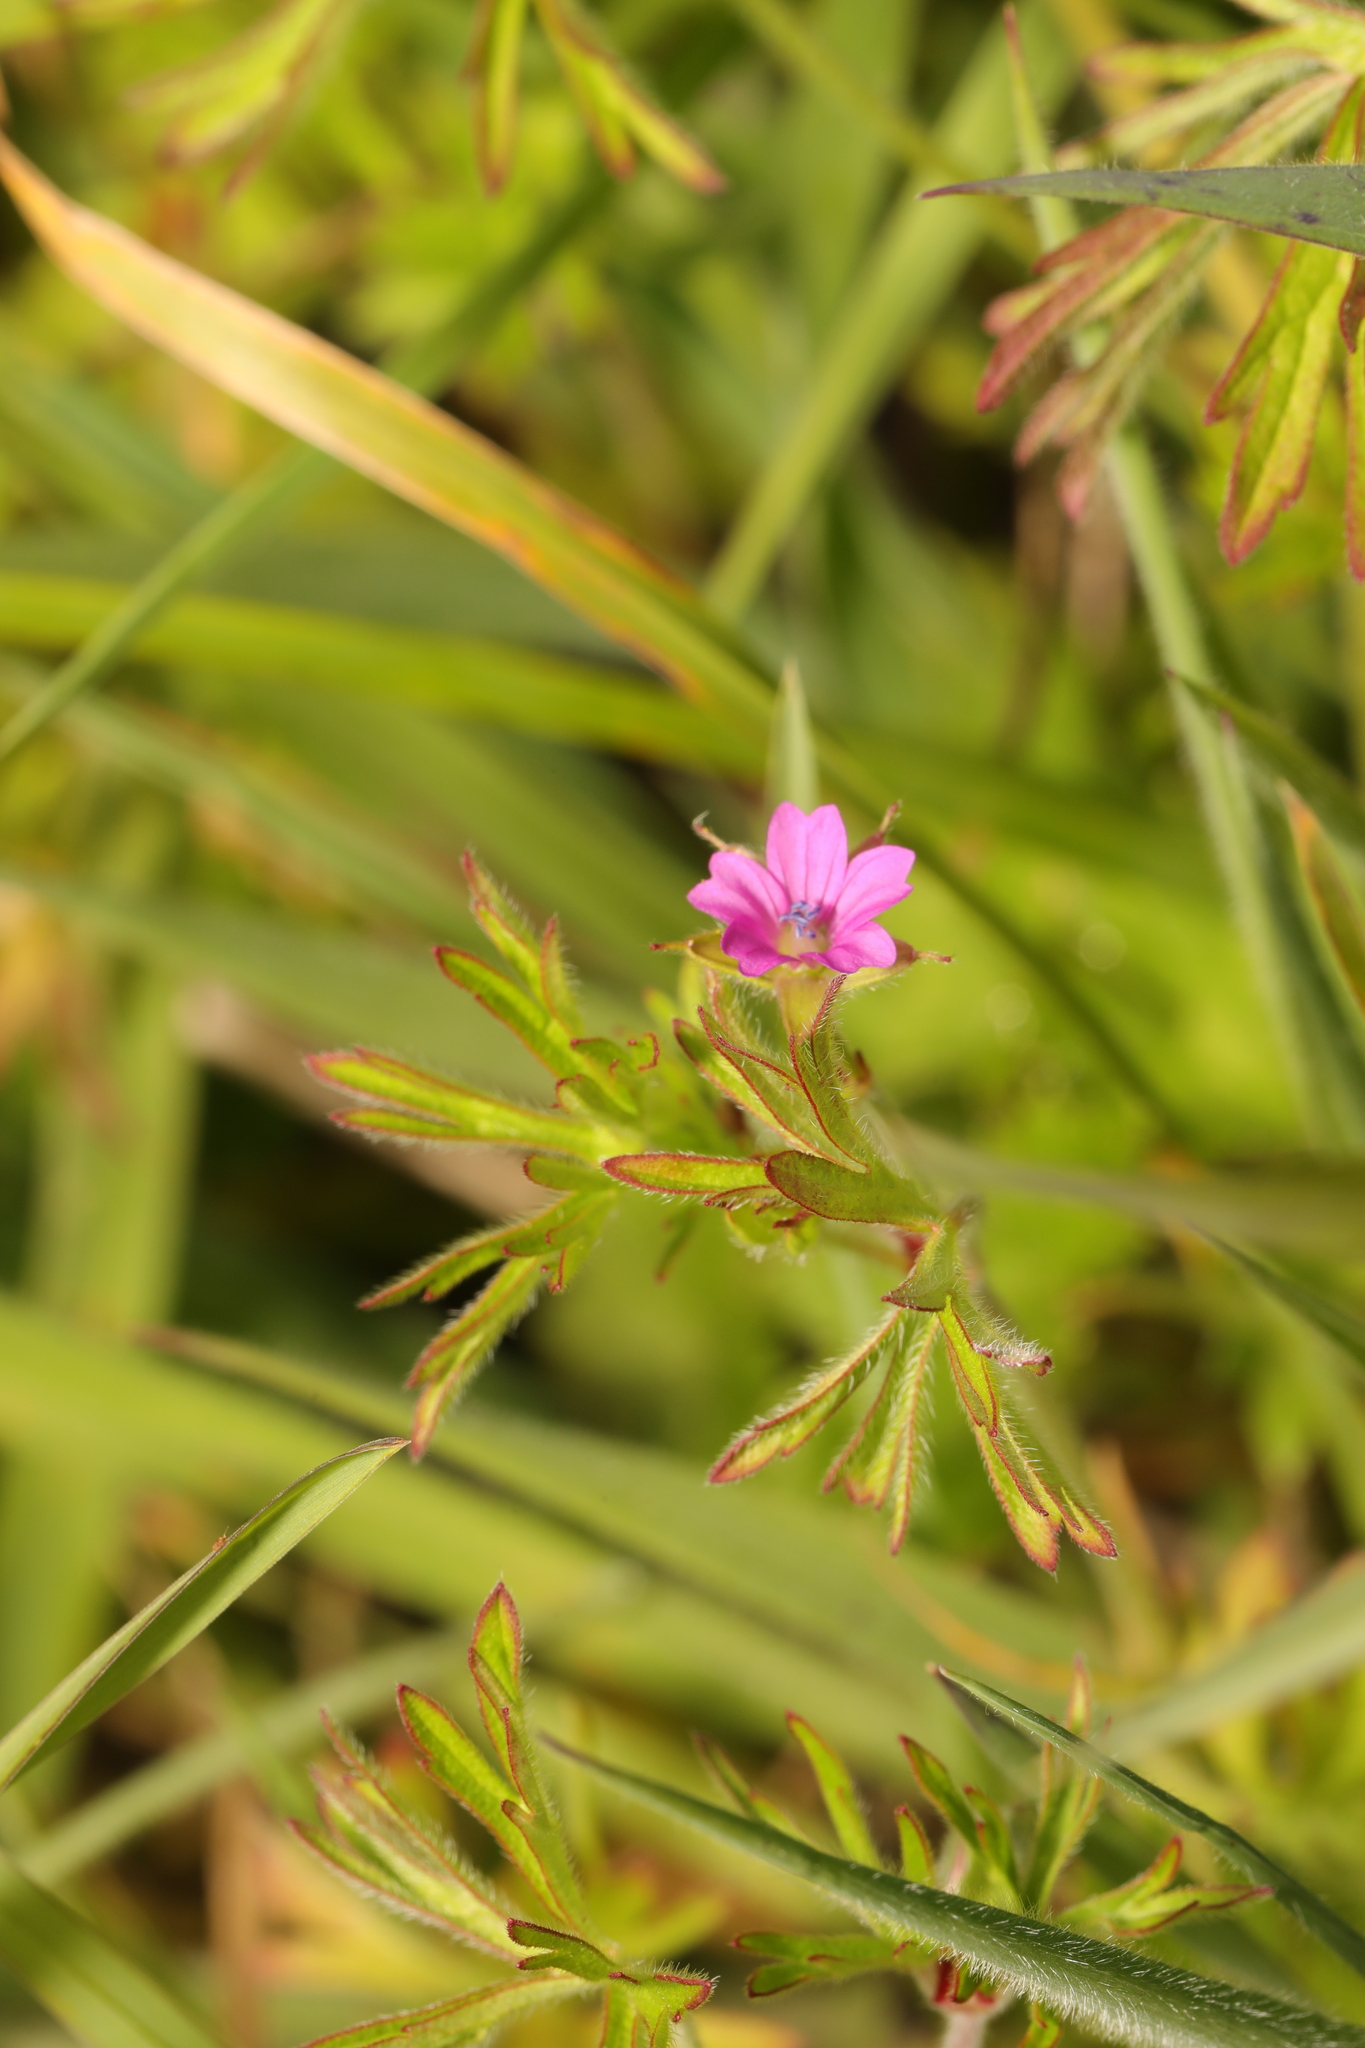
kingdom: Plantae
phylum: Tracheophyta
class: Magnoliopsida
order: Geraniales
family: Geraniaceae
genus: Geranium
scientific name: Geranium dissectum
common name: Cut-leaved crane's-bill
